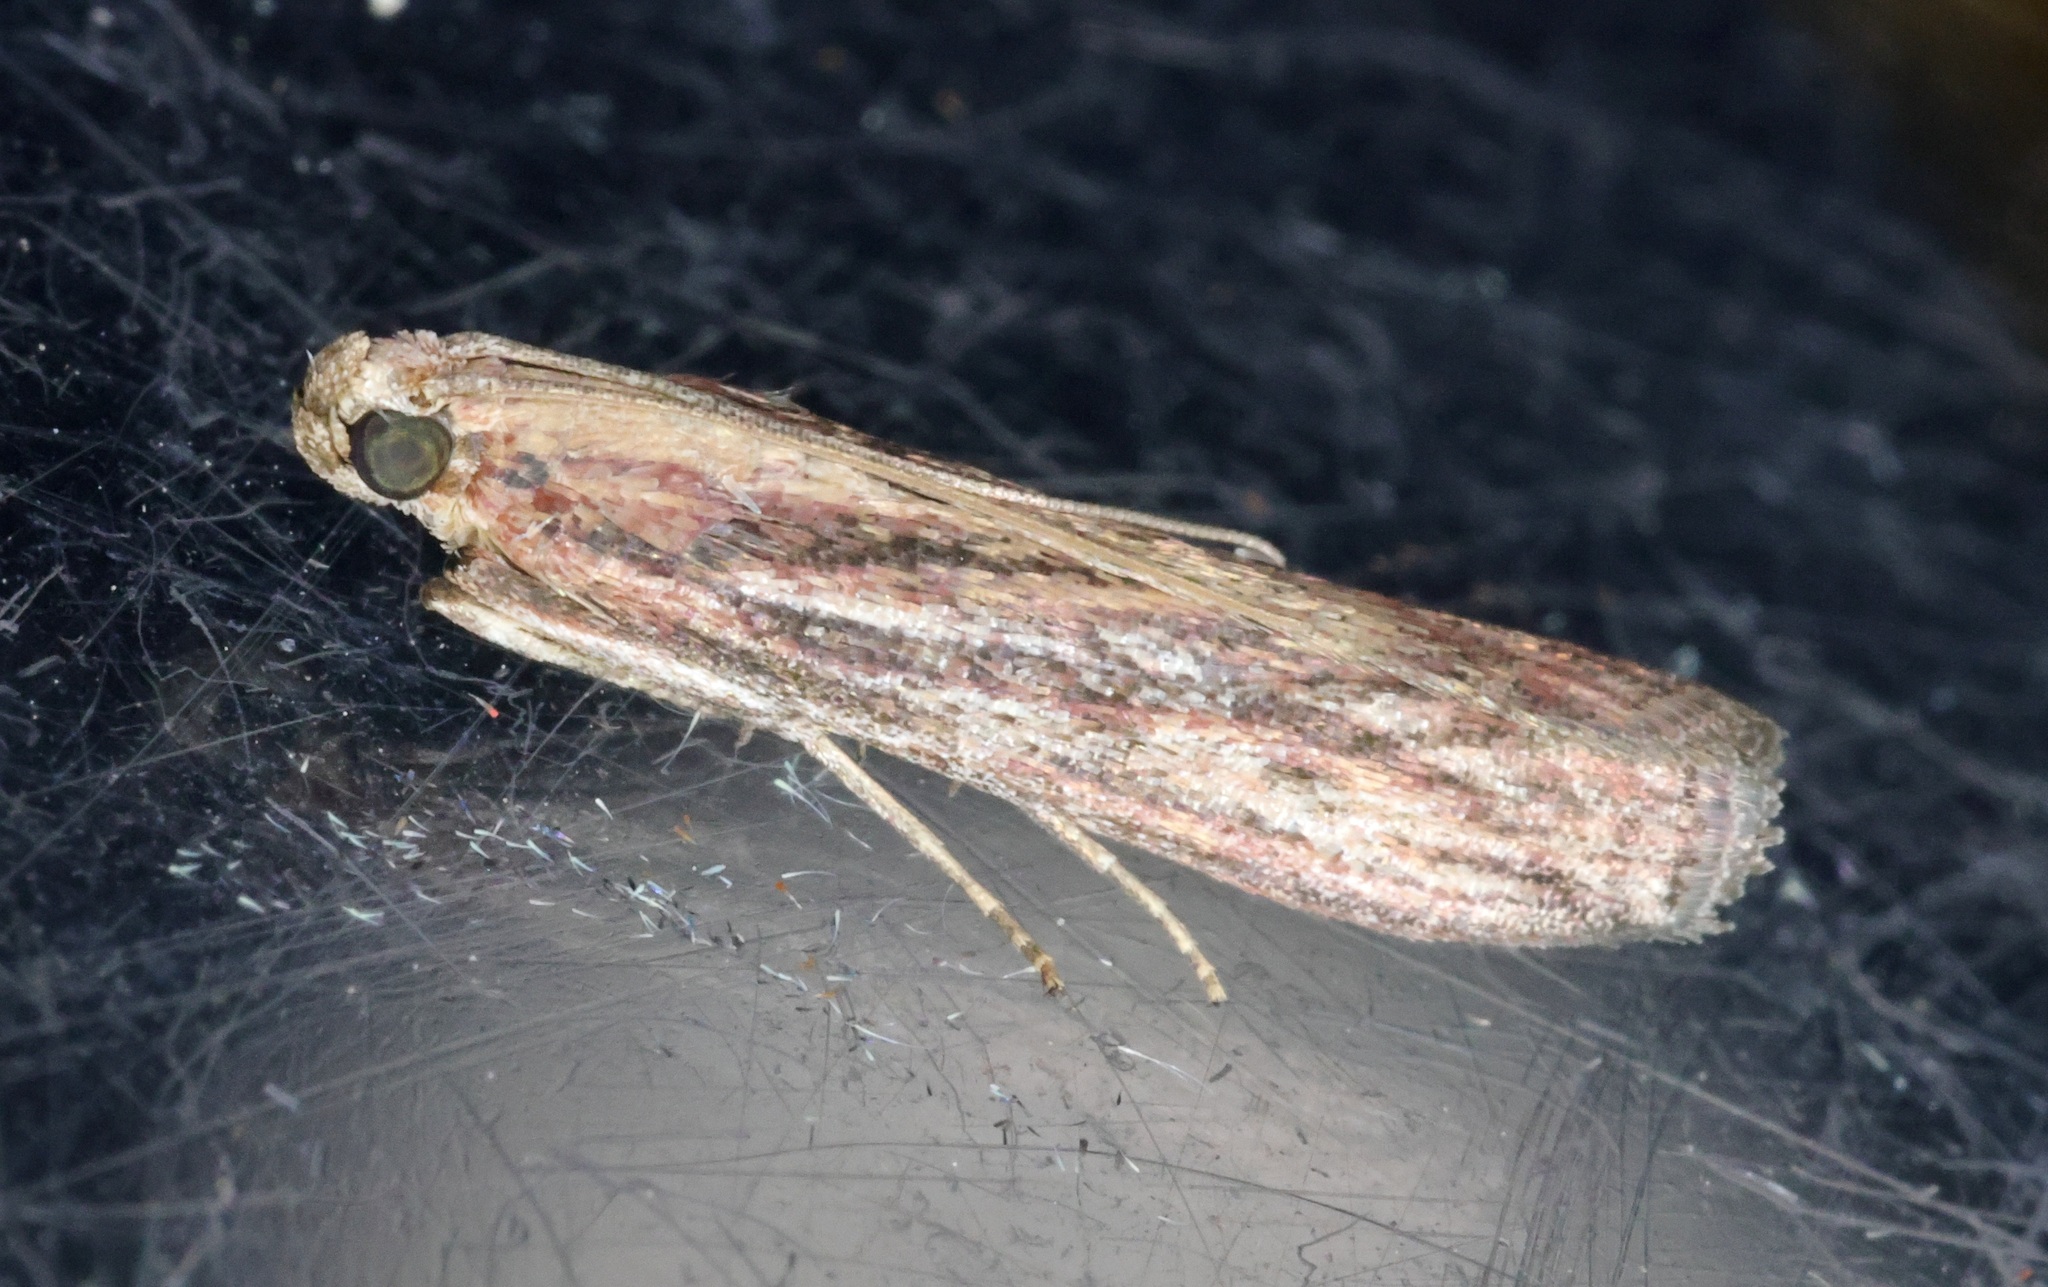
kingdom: Animalia
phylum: Arthropoda
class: Insecta
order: Lepidoptera
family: Pyralidae
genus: Zonula
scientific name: Zonula
